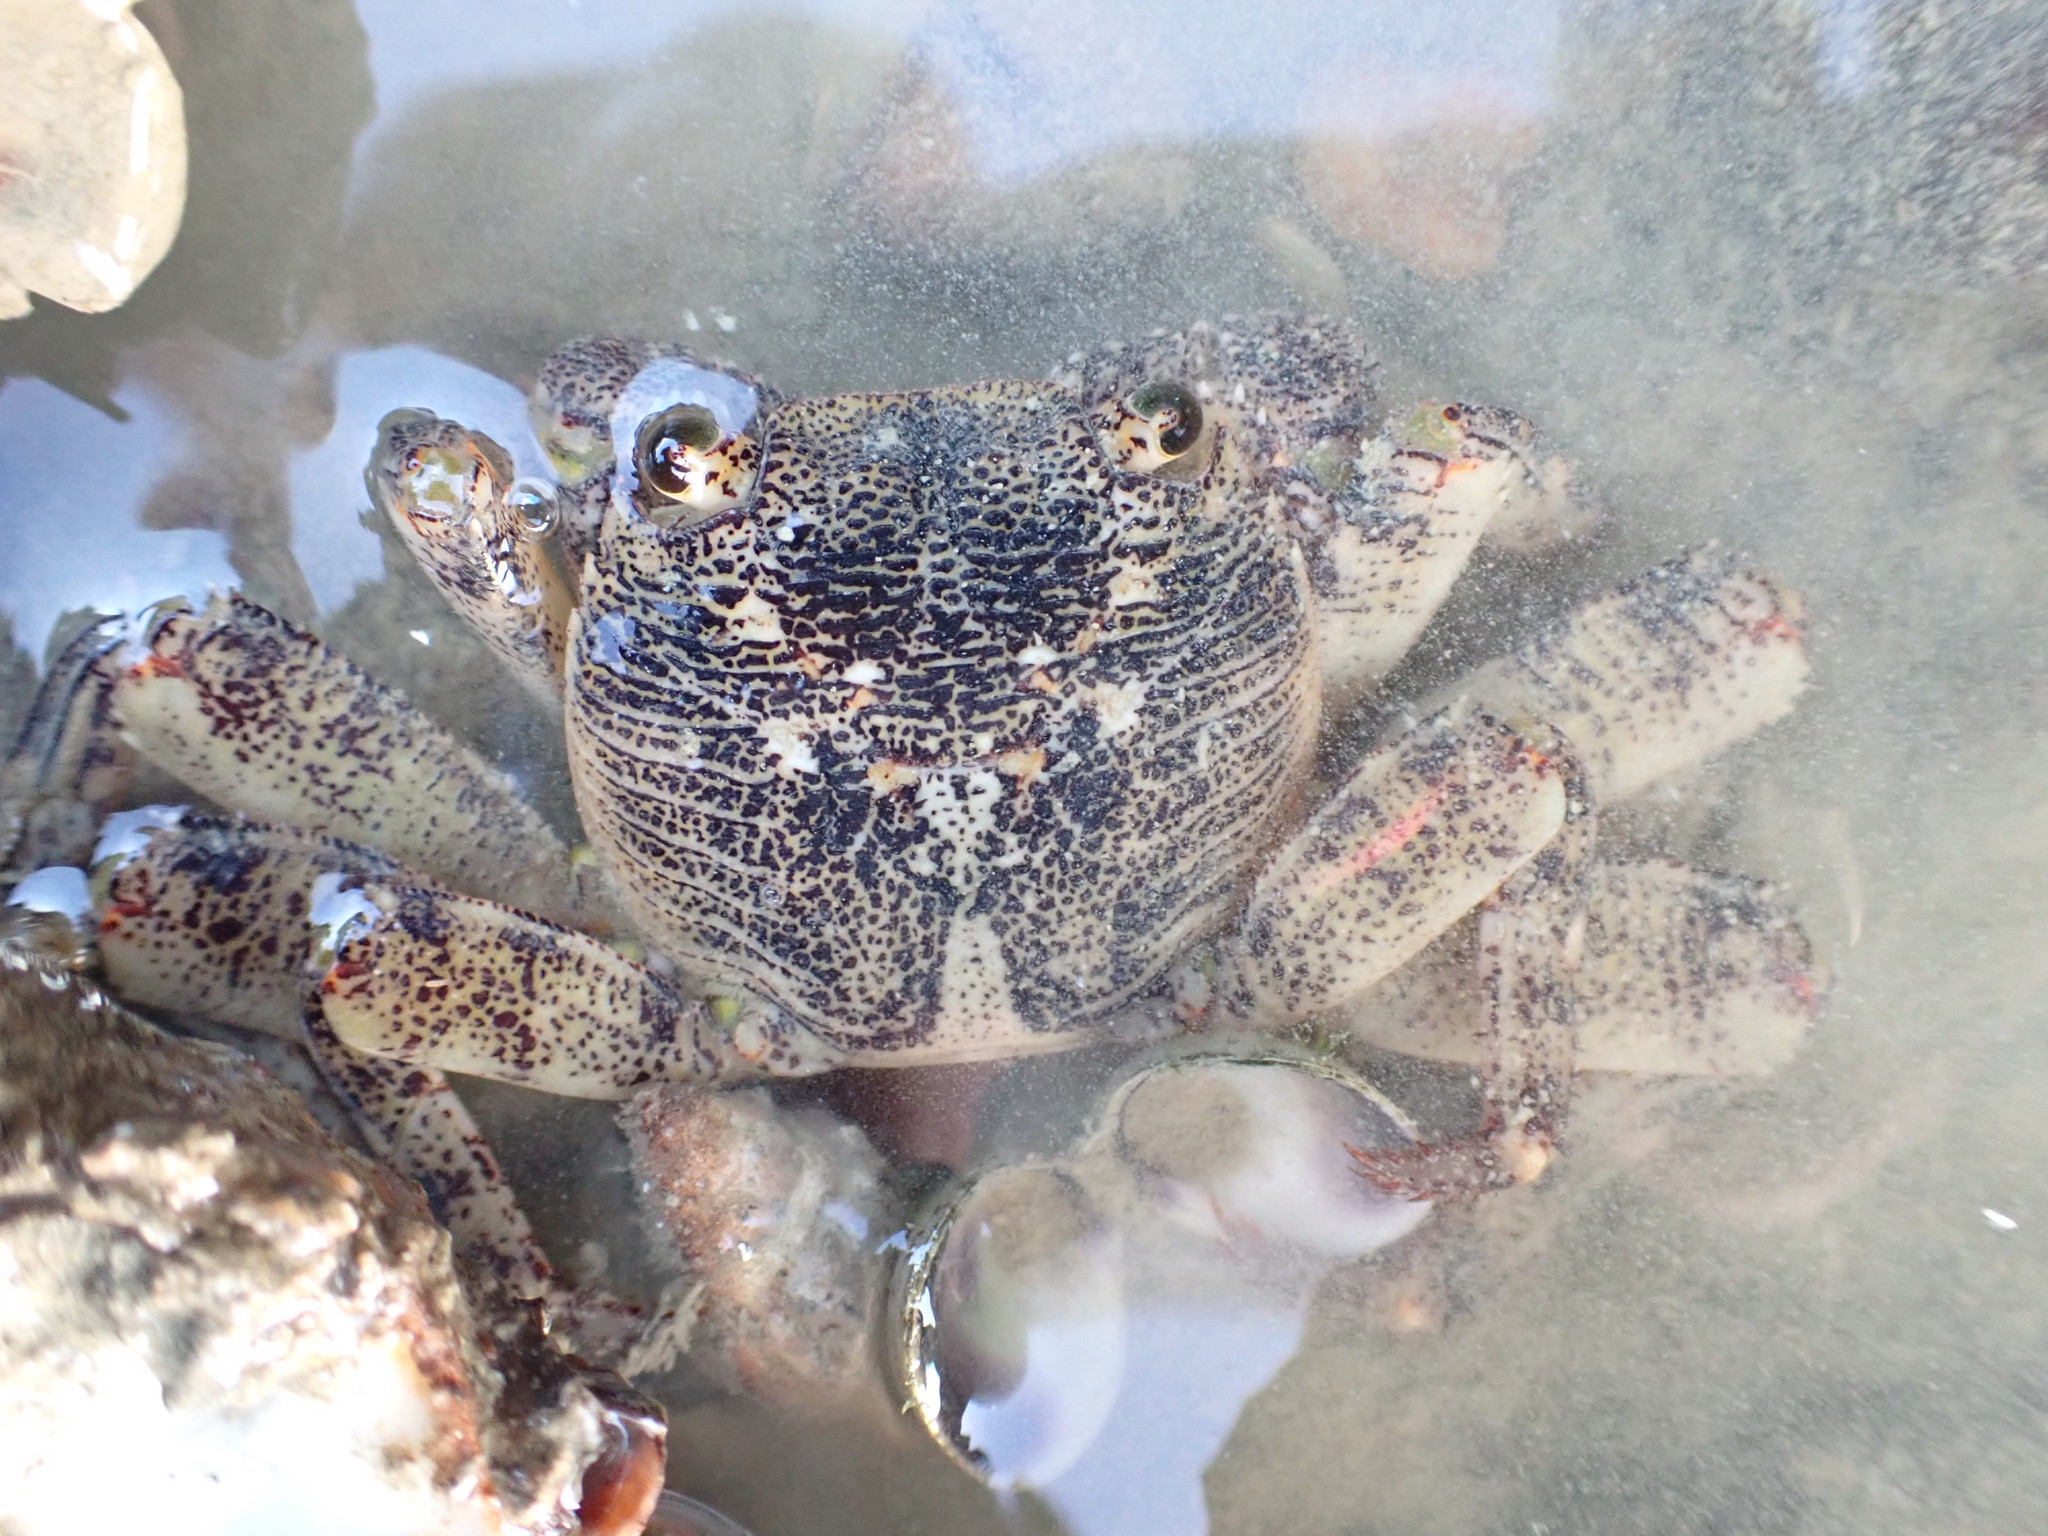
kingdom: Animalia
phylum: Arthropoda
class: Malacostraca
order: Decapoda
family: Grapsidae
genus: Leptograpsus
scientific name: Leptograpsus variegatus
